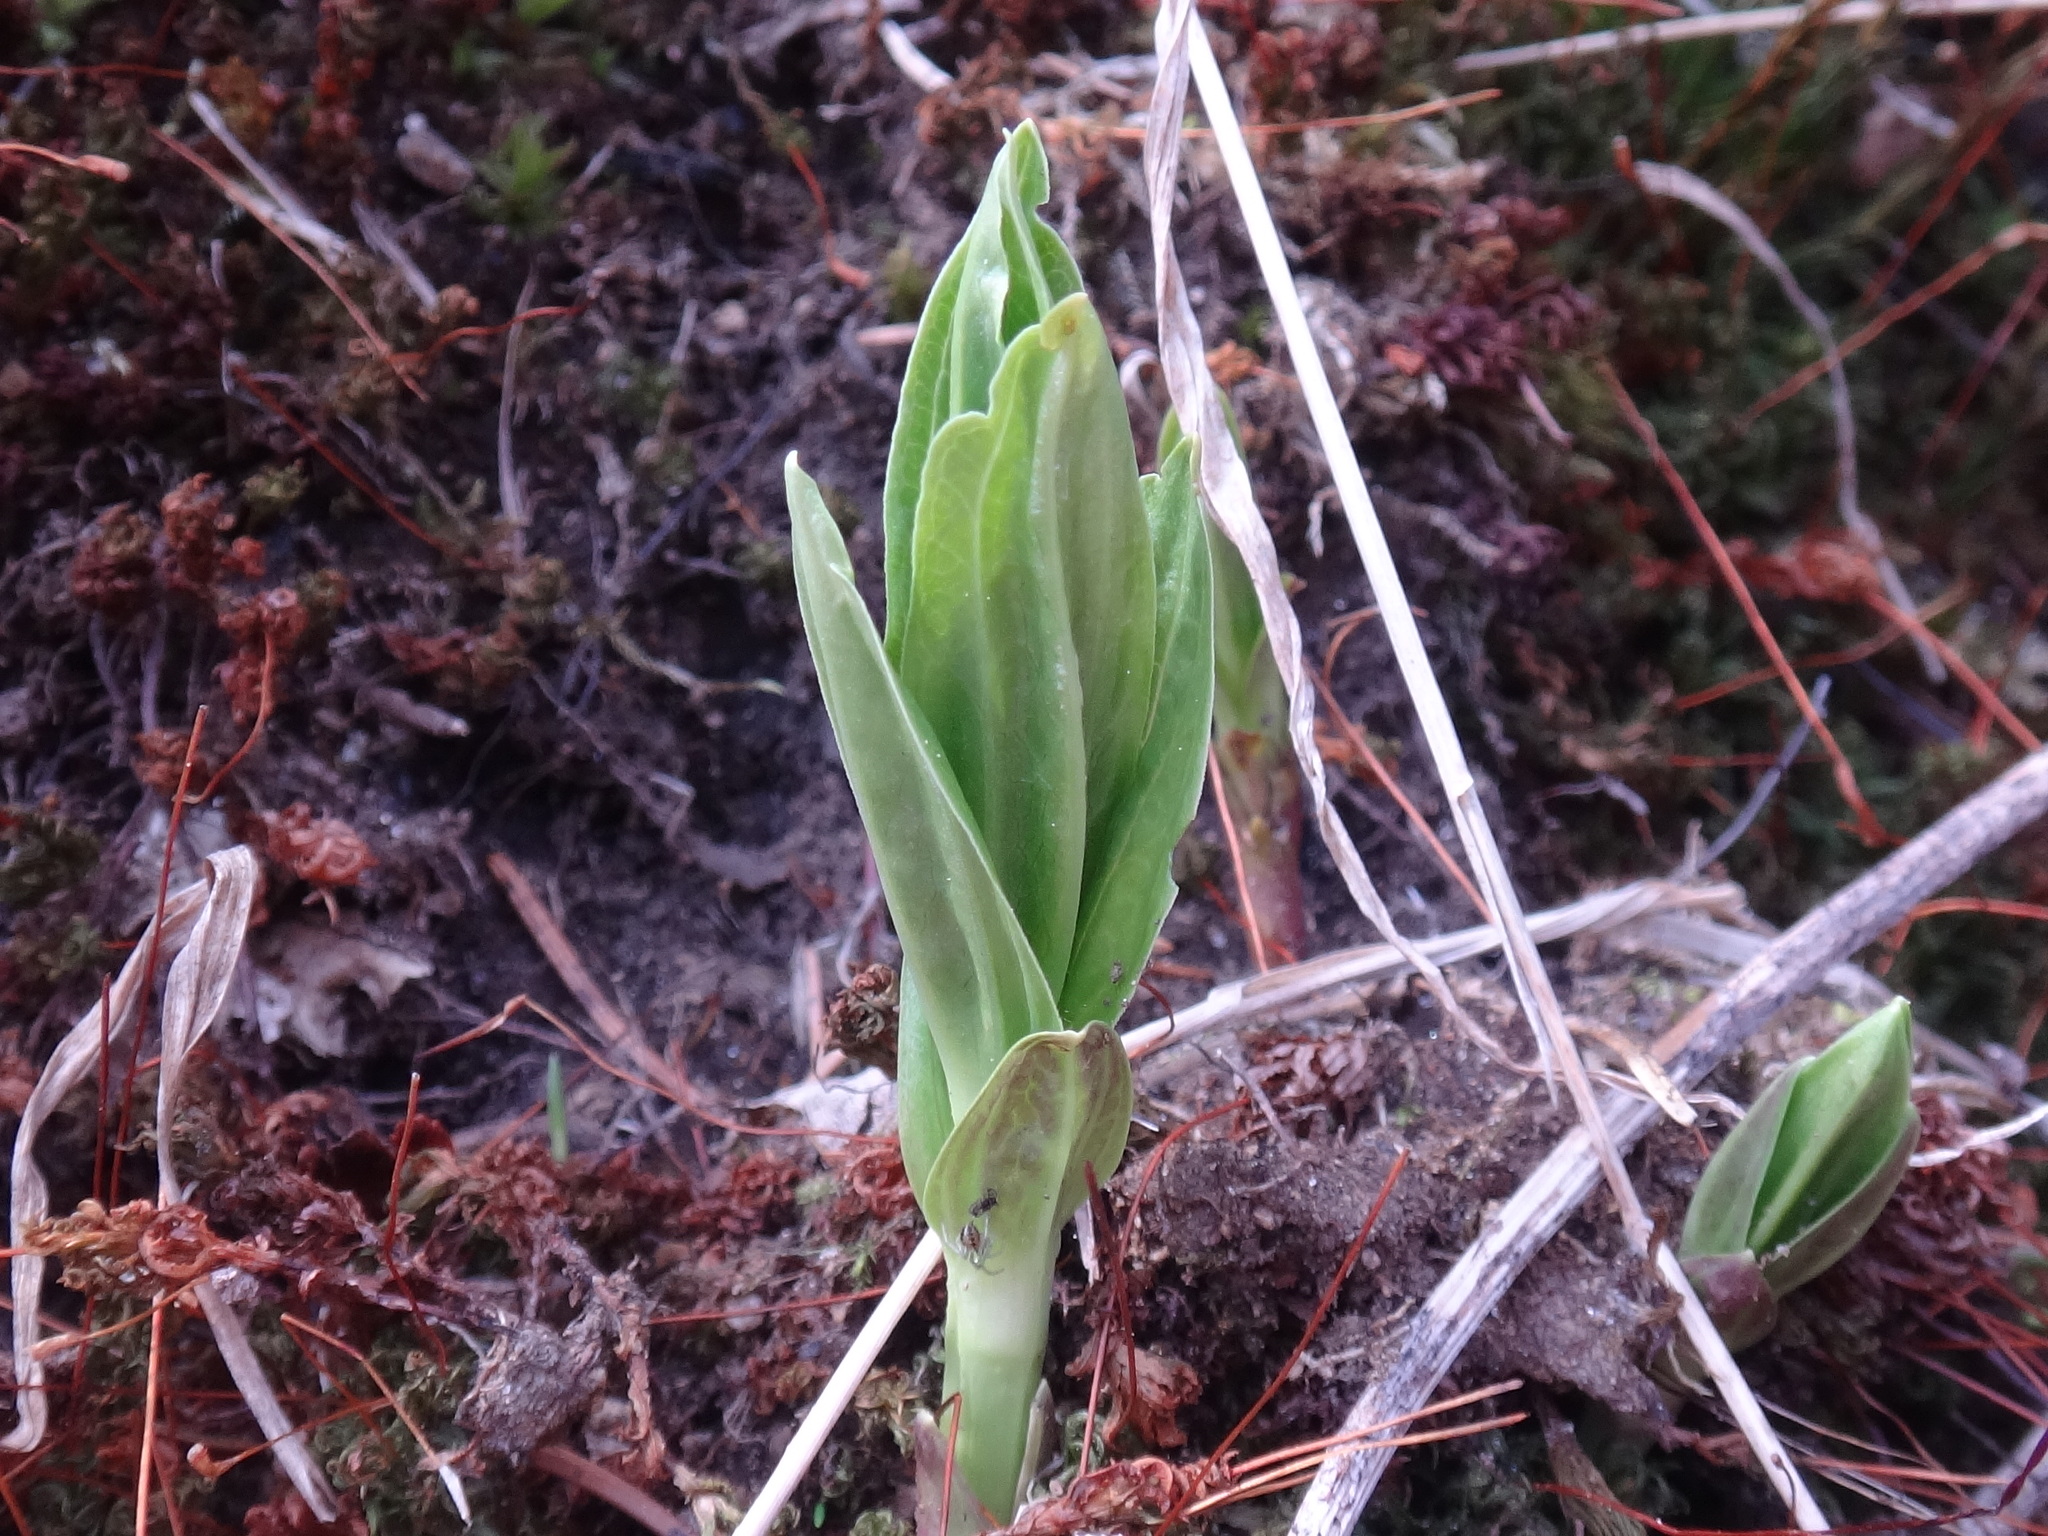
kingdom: Plantae
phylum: Tracheophyta
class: Magnoliopsida
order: Gentianales
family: Gentianaceae
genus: Gentiana
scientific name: Gentiana asclepiadea
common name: Willow gentian
